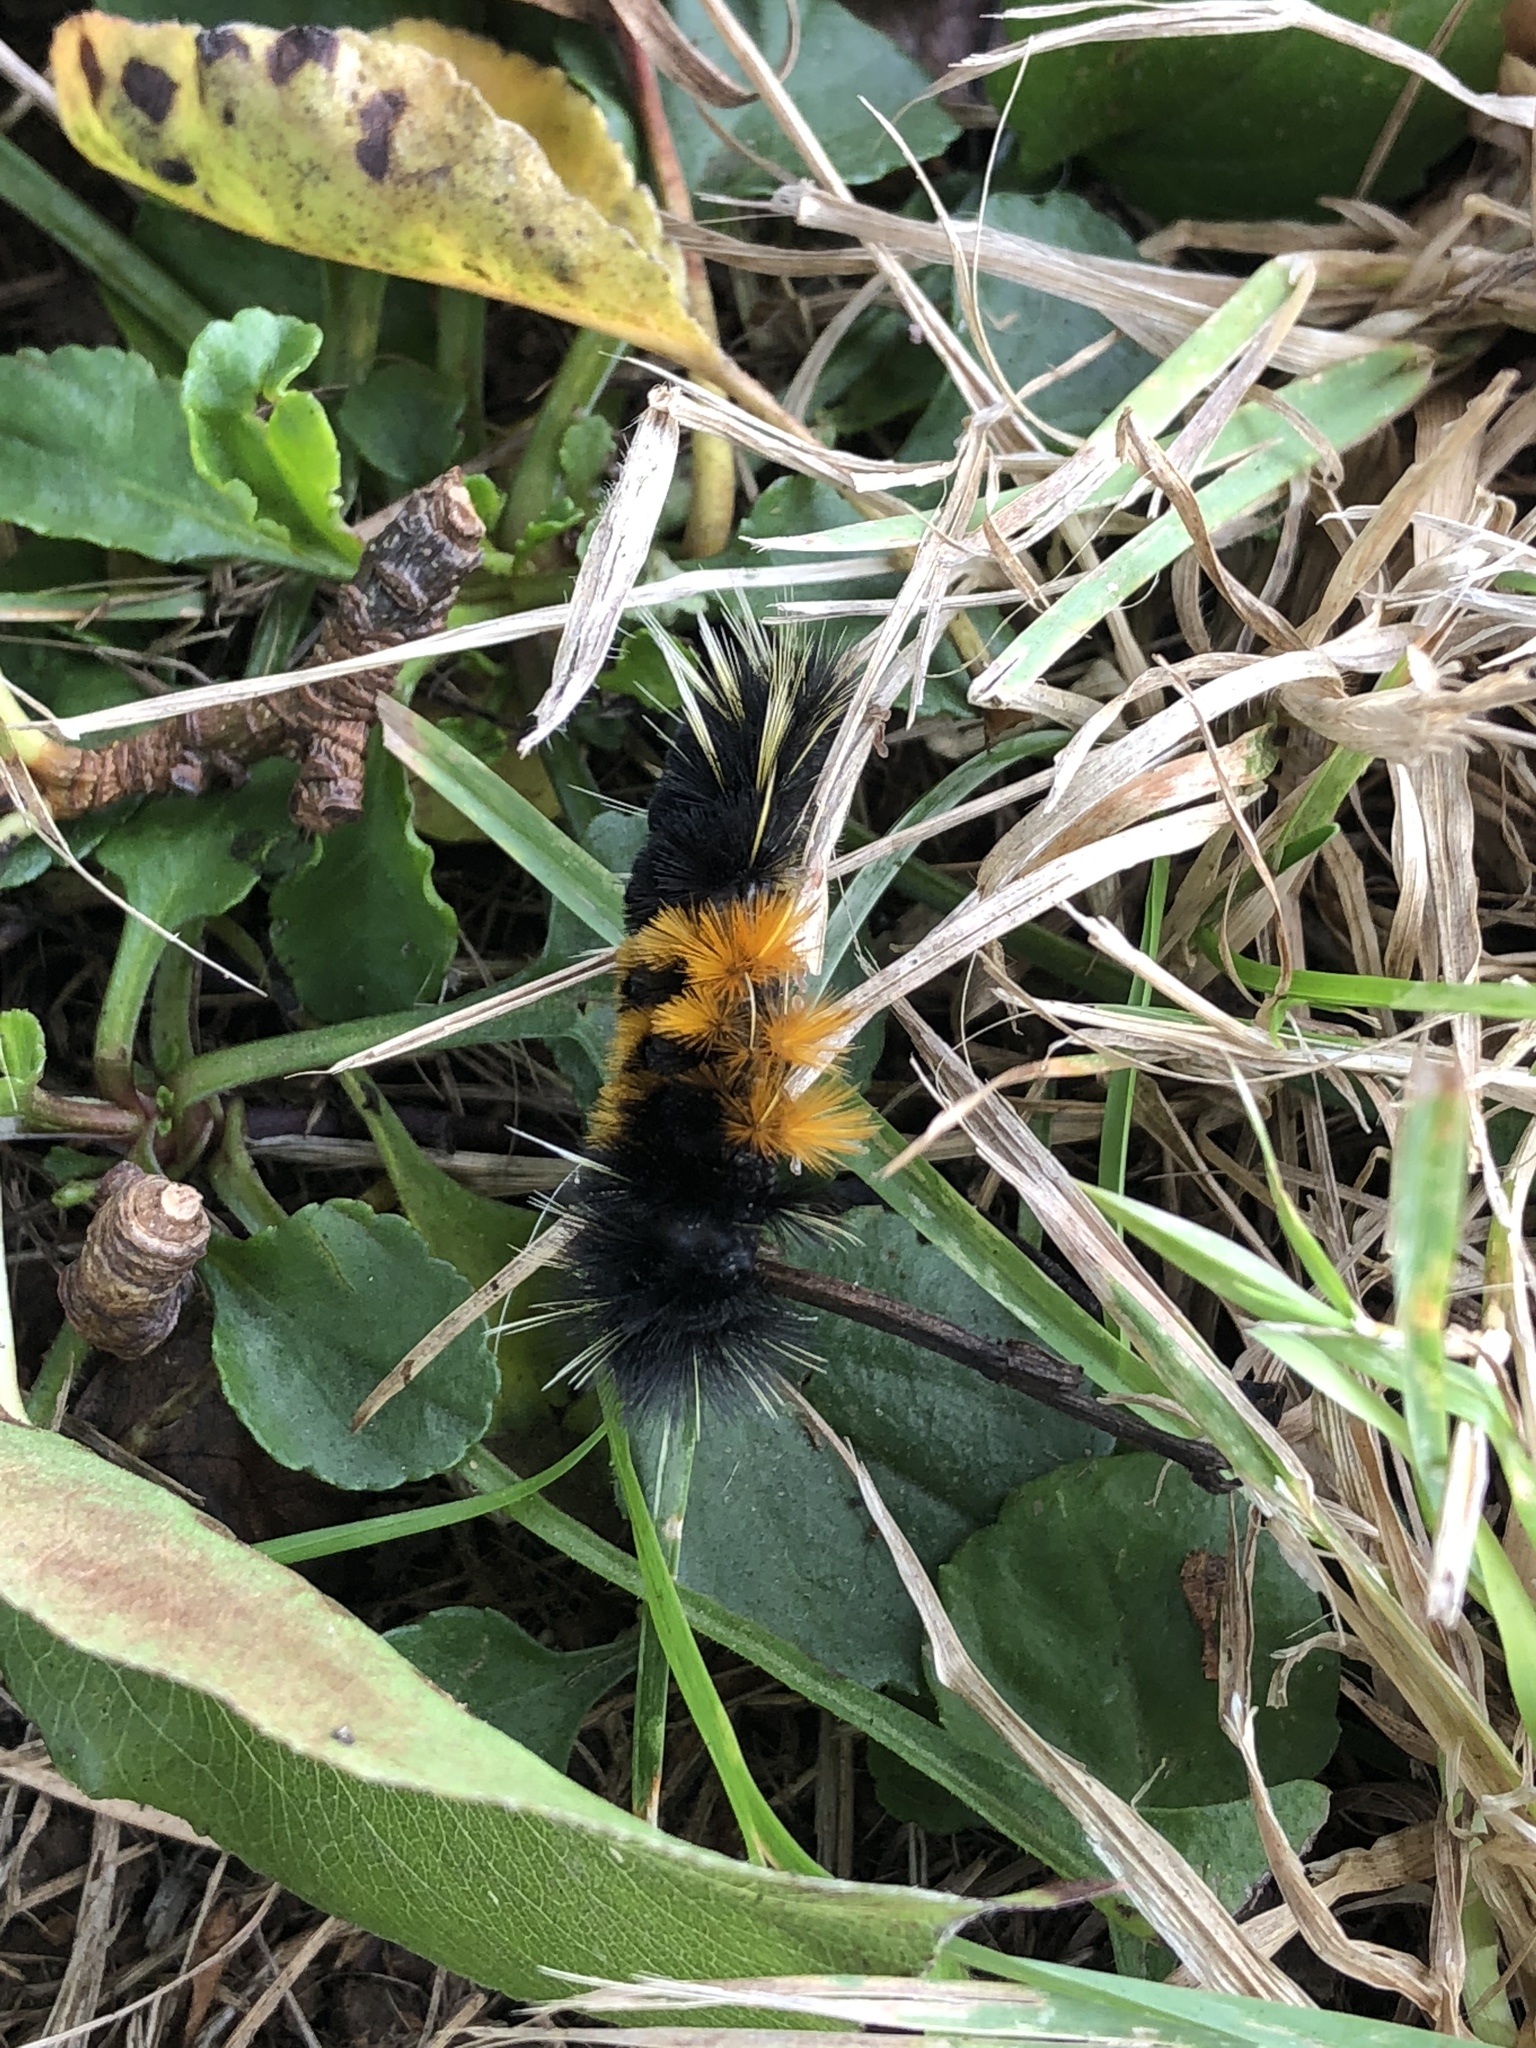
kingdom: Animalia
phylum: Arthropoda
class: Insecta
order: Lepidoptera
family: Erebidae
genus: Lophocampa
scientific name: Lophocampa maculata
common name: Spotted tussock moth
